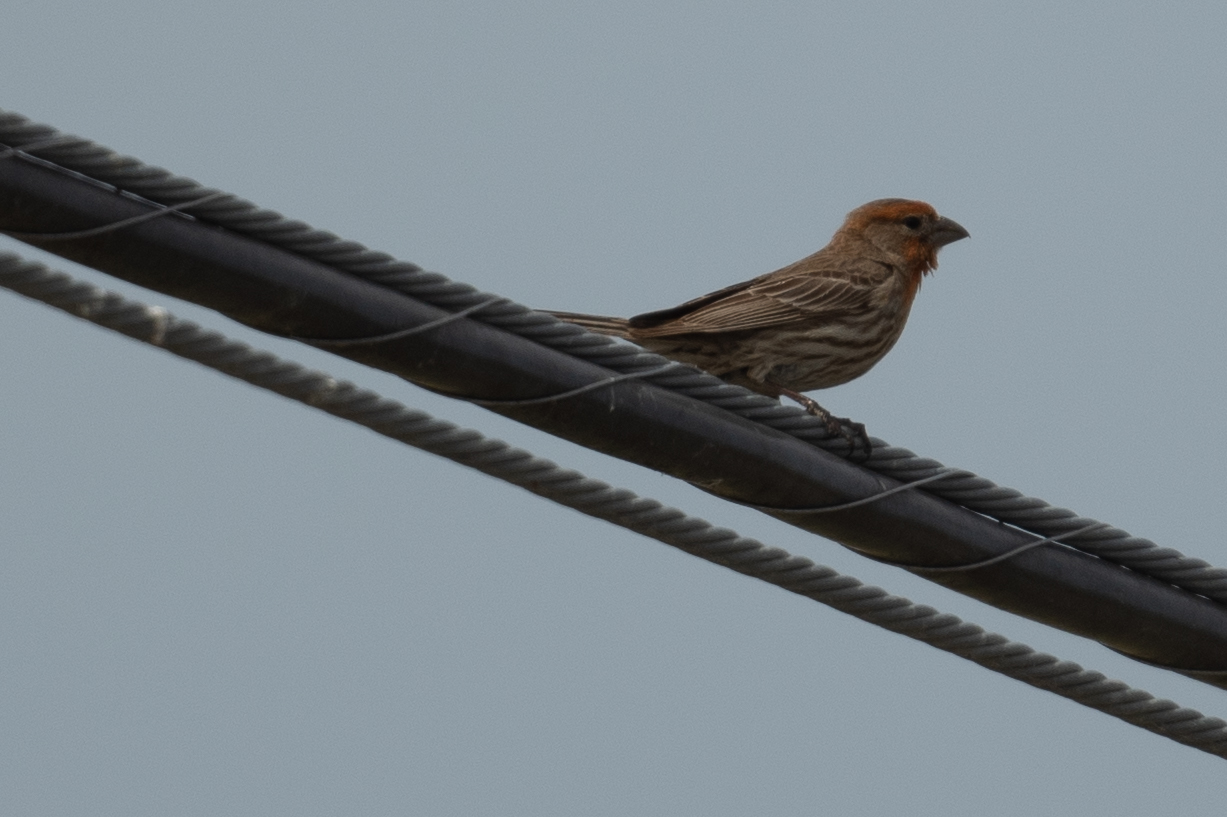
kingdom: Animalia
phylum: Chordata
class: Aves
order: Passeriformes
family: Fringillidae
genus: Haemorhous
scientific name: Haemorhous mexicanus
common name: House finch
